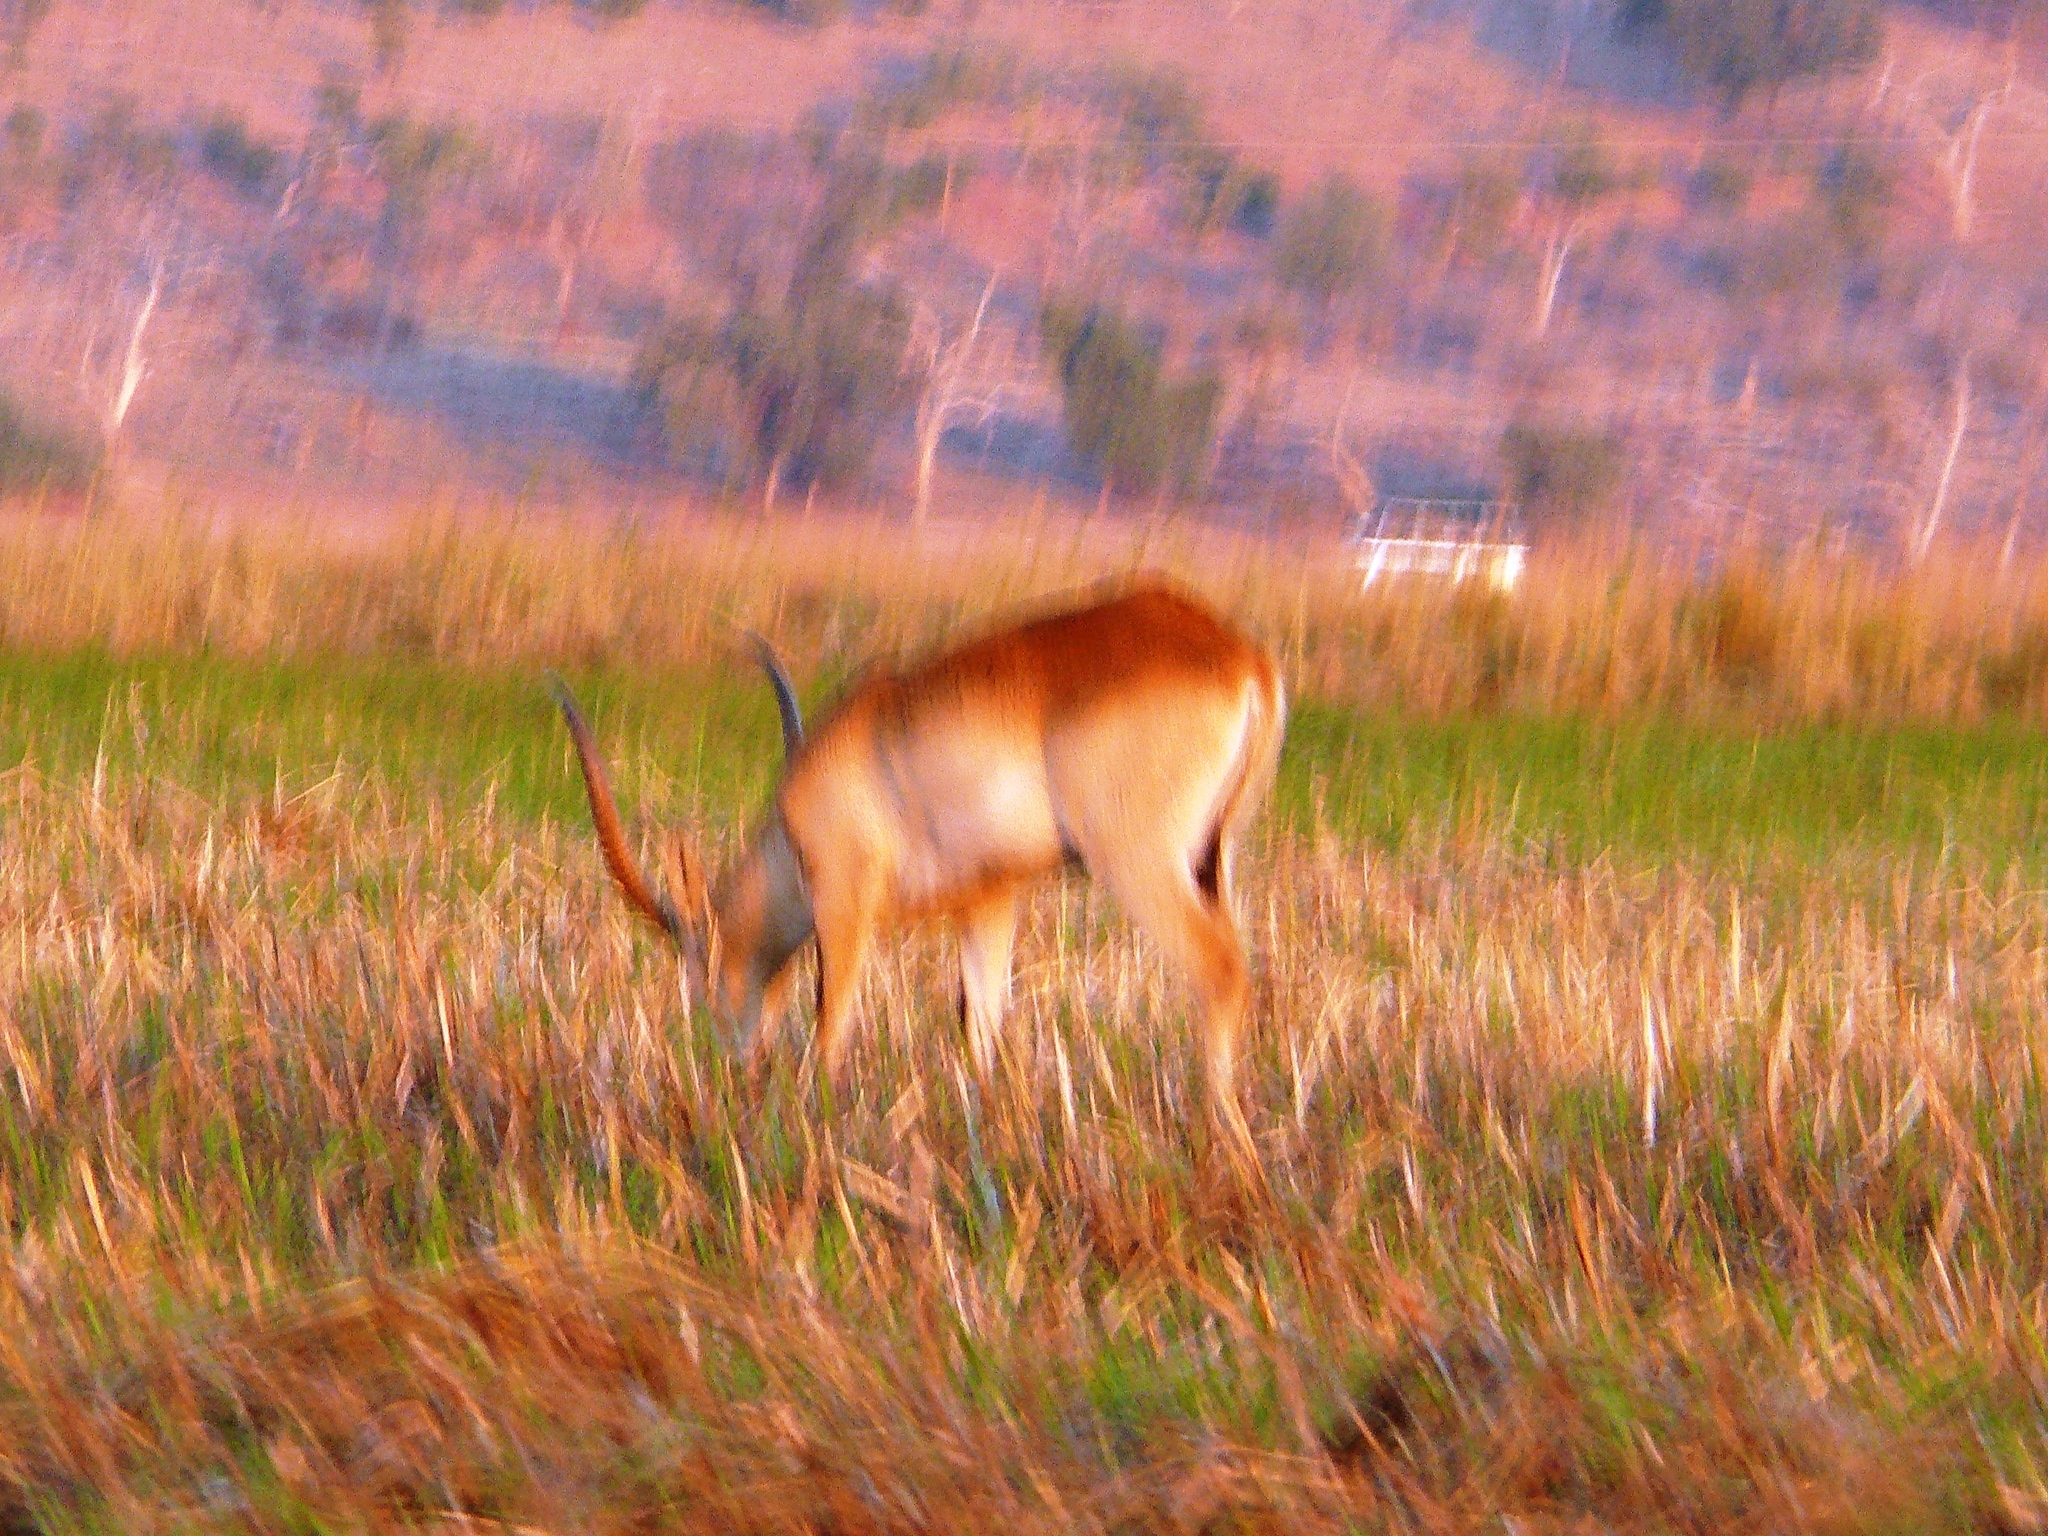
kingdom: Animalia
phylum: Chordata
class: Mammalia
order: Artiodactyla
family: Bovidae
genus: Kobus
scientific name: Kobus leche
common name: Lechwe
